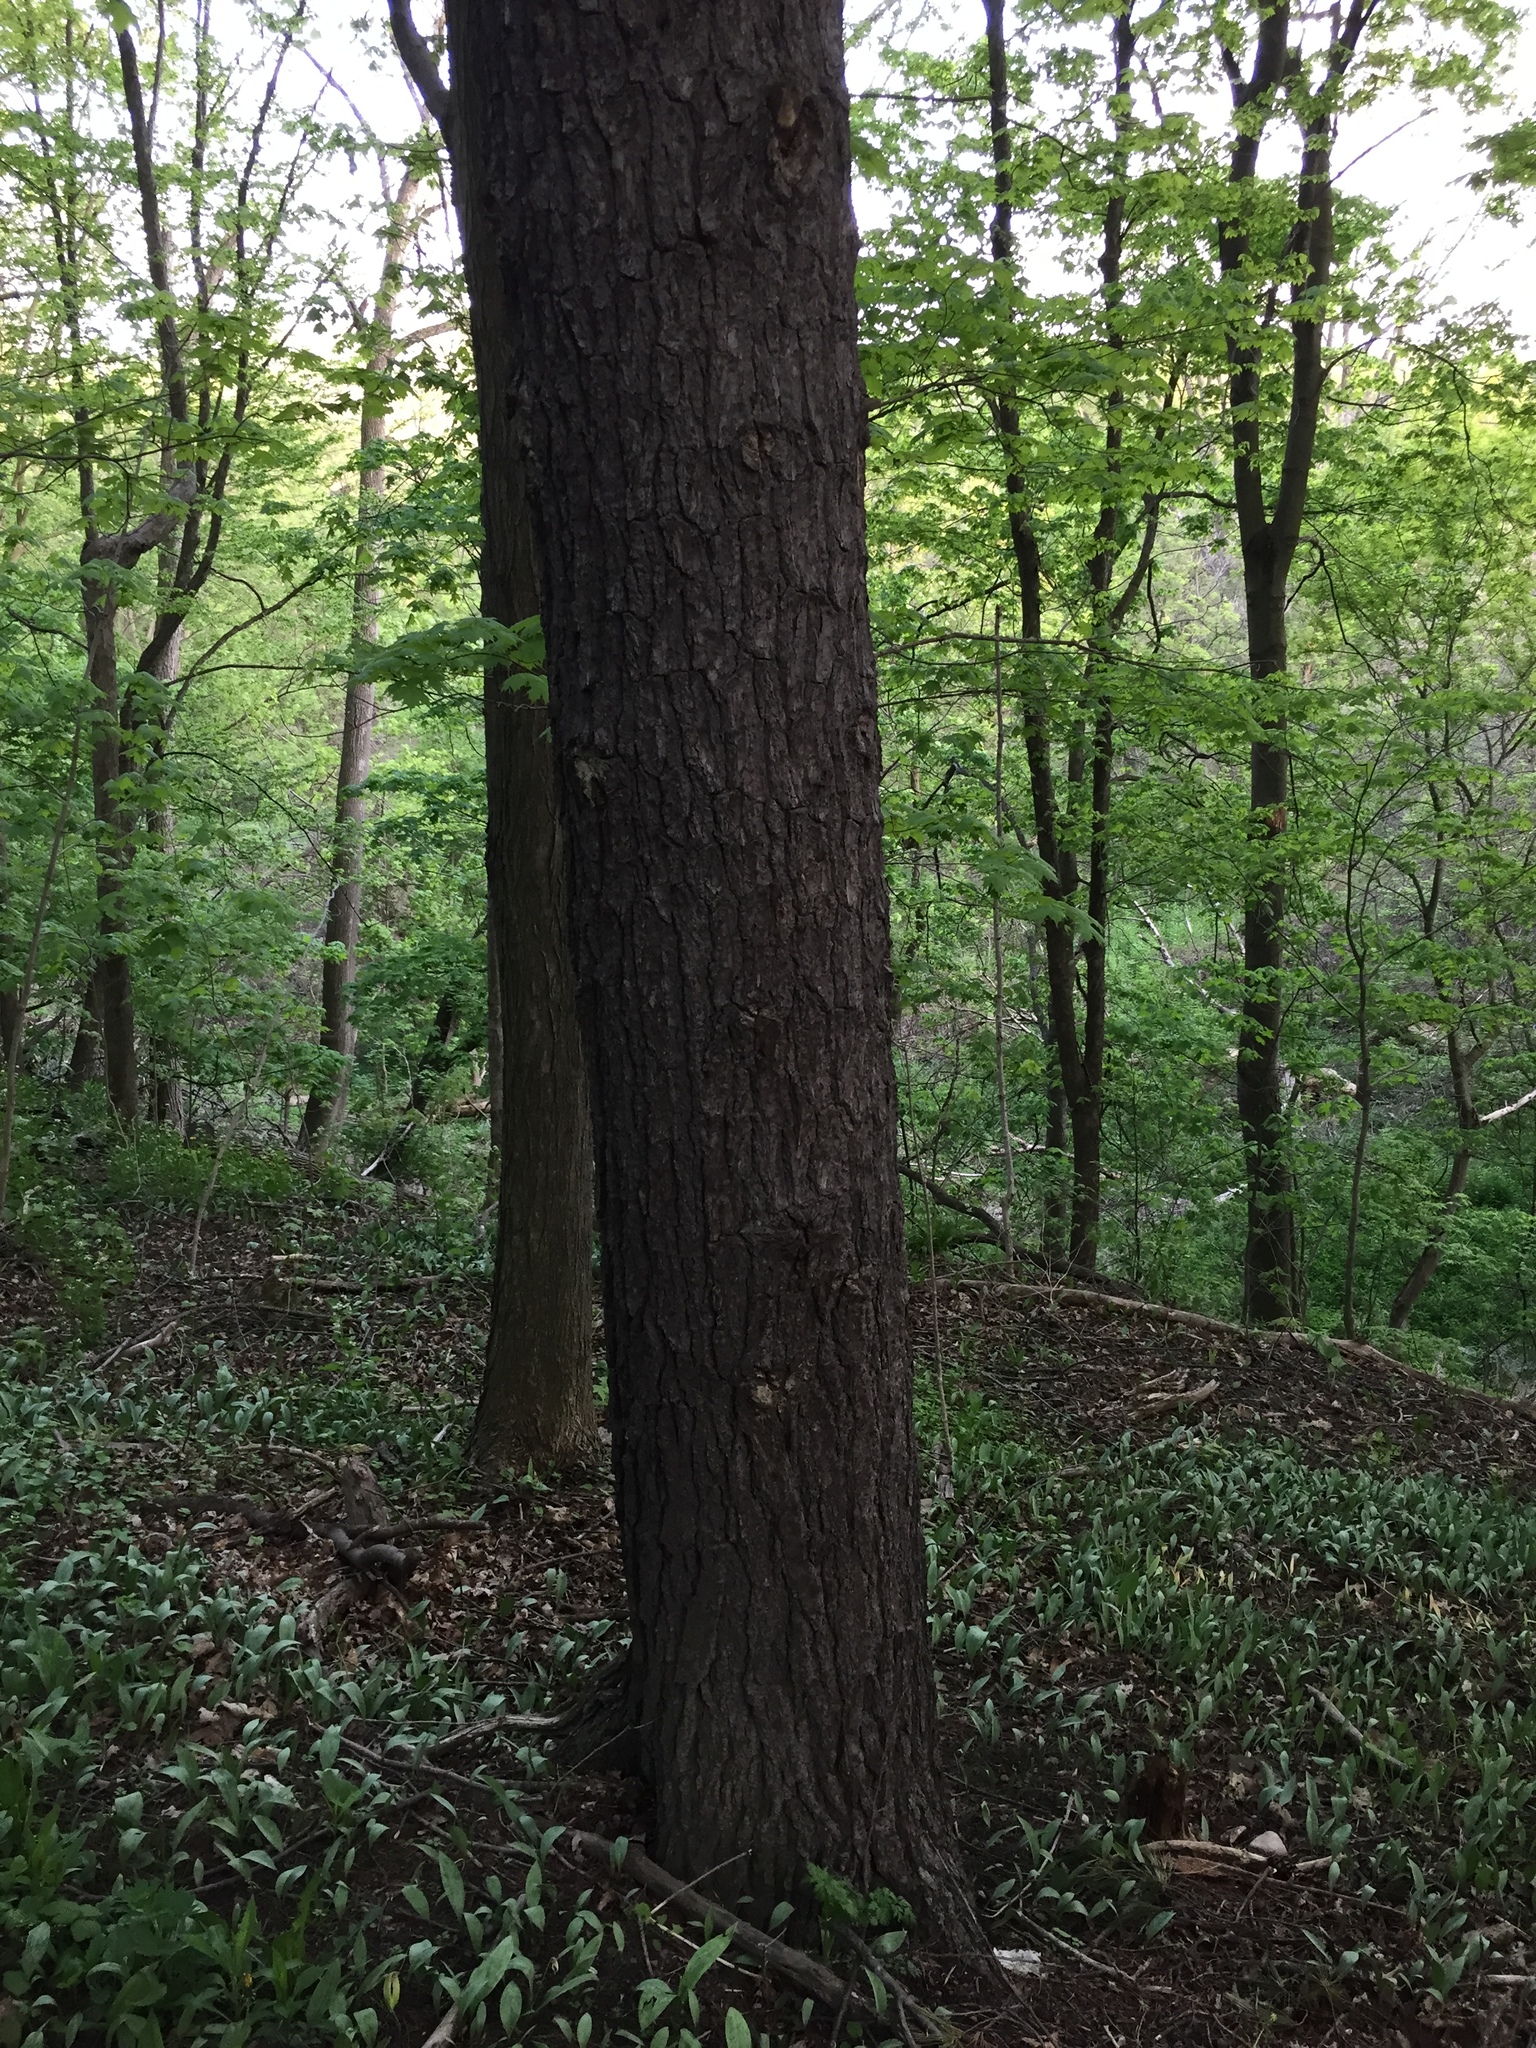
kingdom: Plantae
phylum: Tracheophyta
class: Pinopsida
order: Pinales
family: Pinaceae
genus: Pinus
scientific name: Pinus strobus
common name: Weymouth pine
